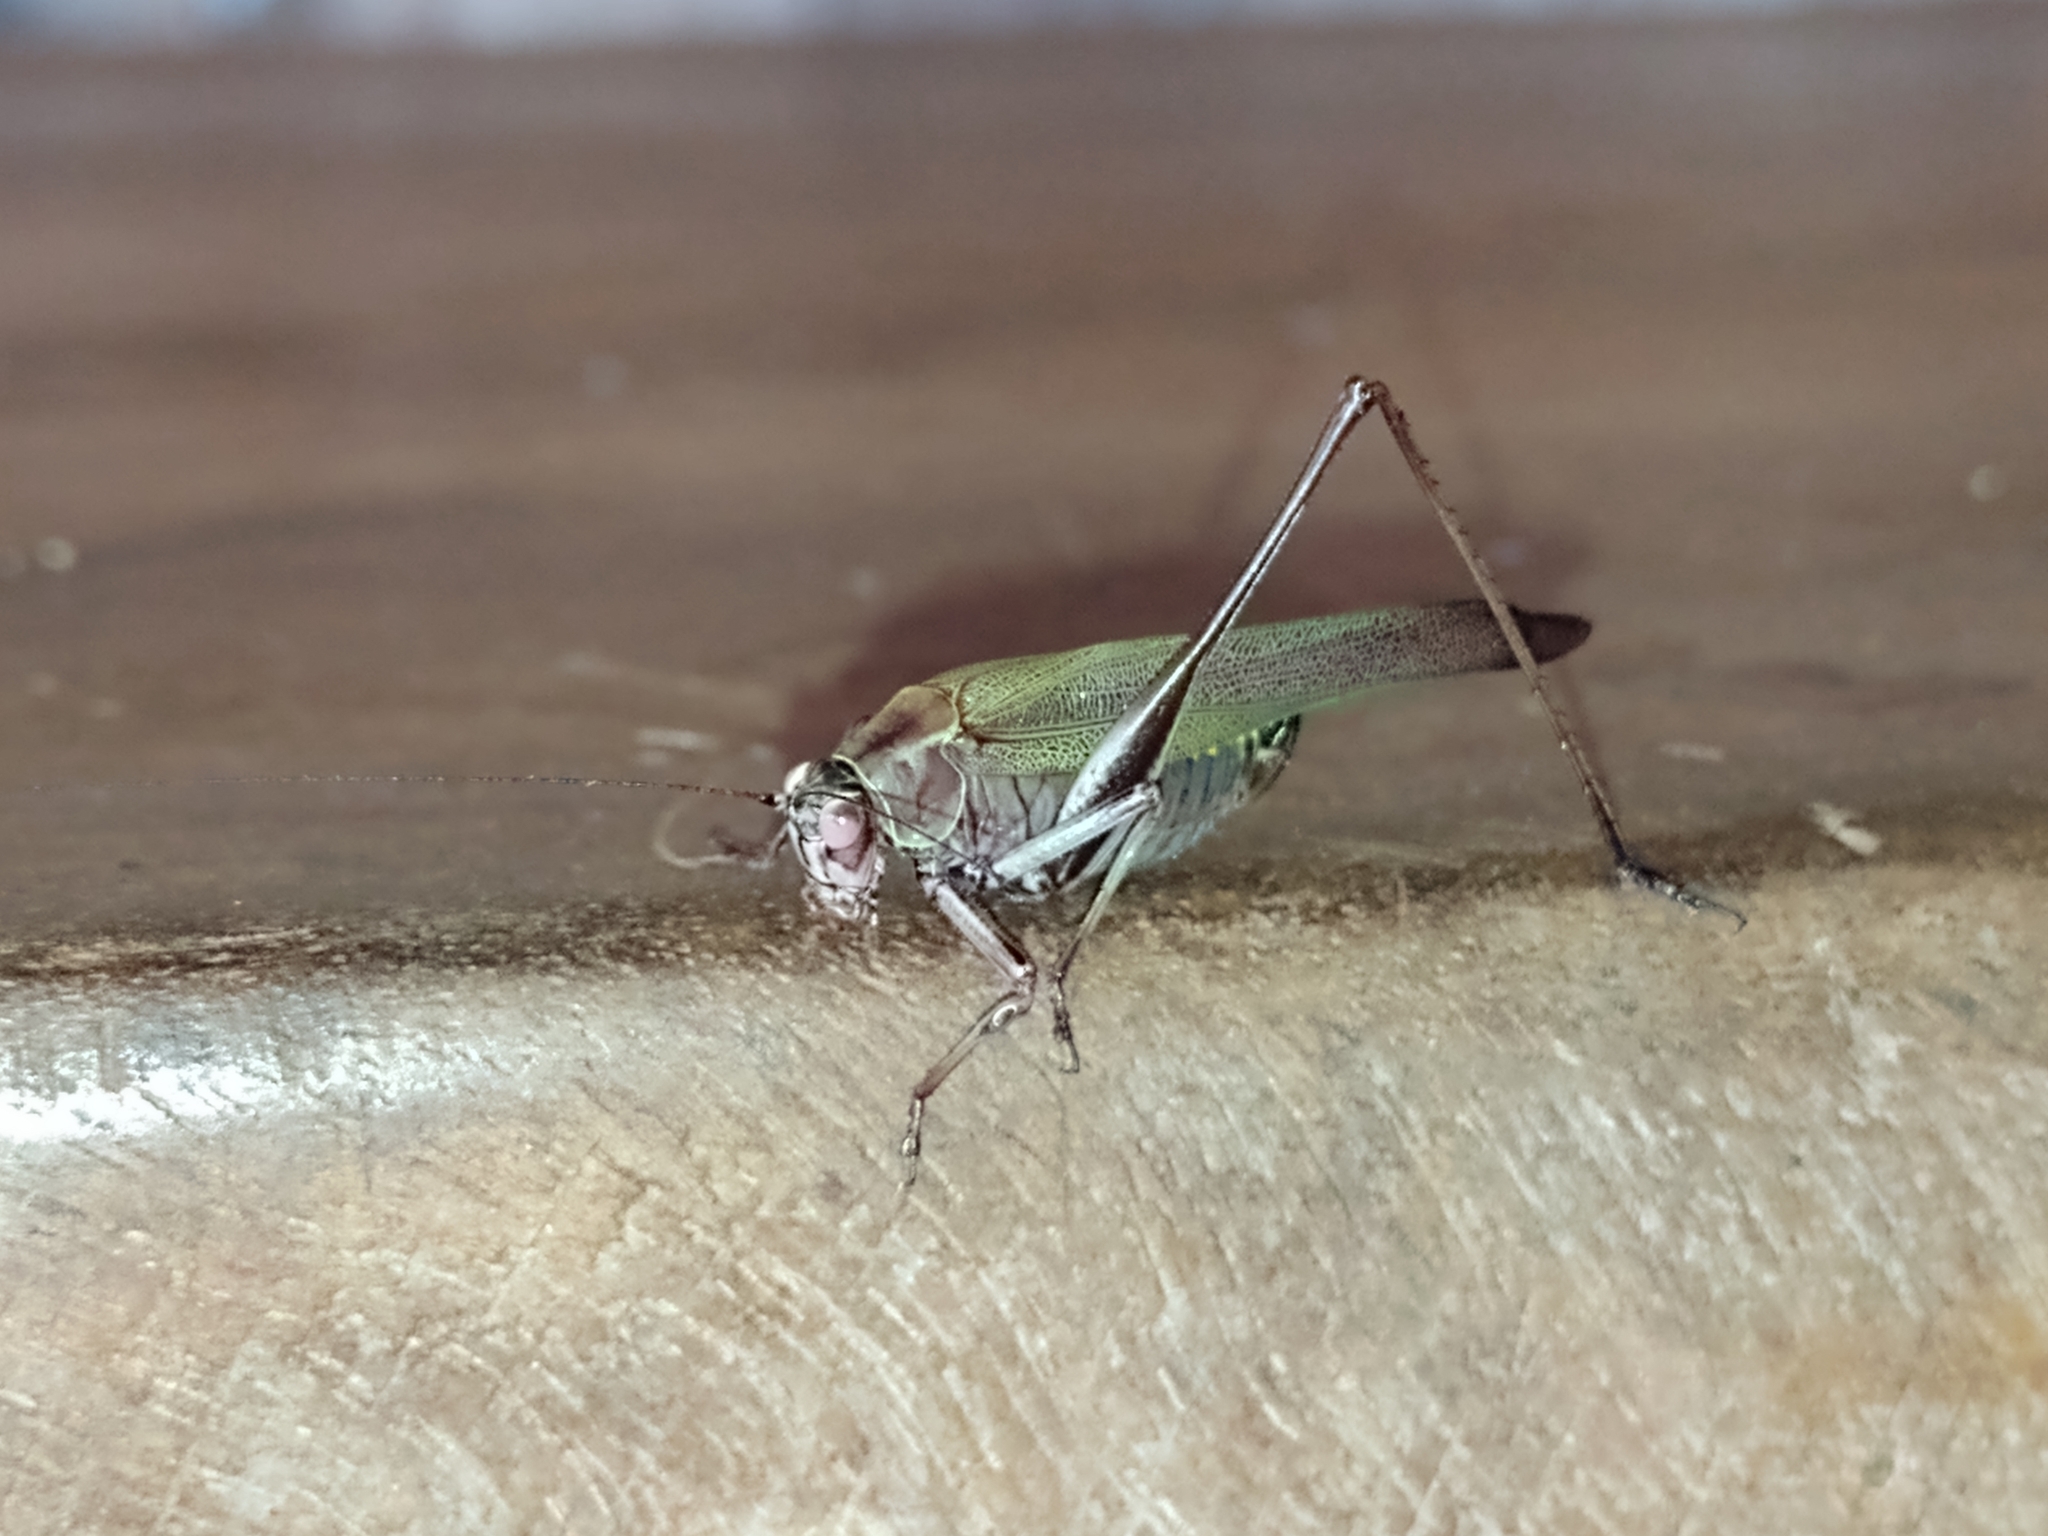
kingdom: Animalia
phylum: Arthropoda
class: Insecta
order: Orthoptera
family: Tettigoniidae
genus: Enthephippion
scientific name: Enthephippion olivaceum
